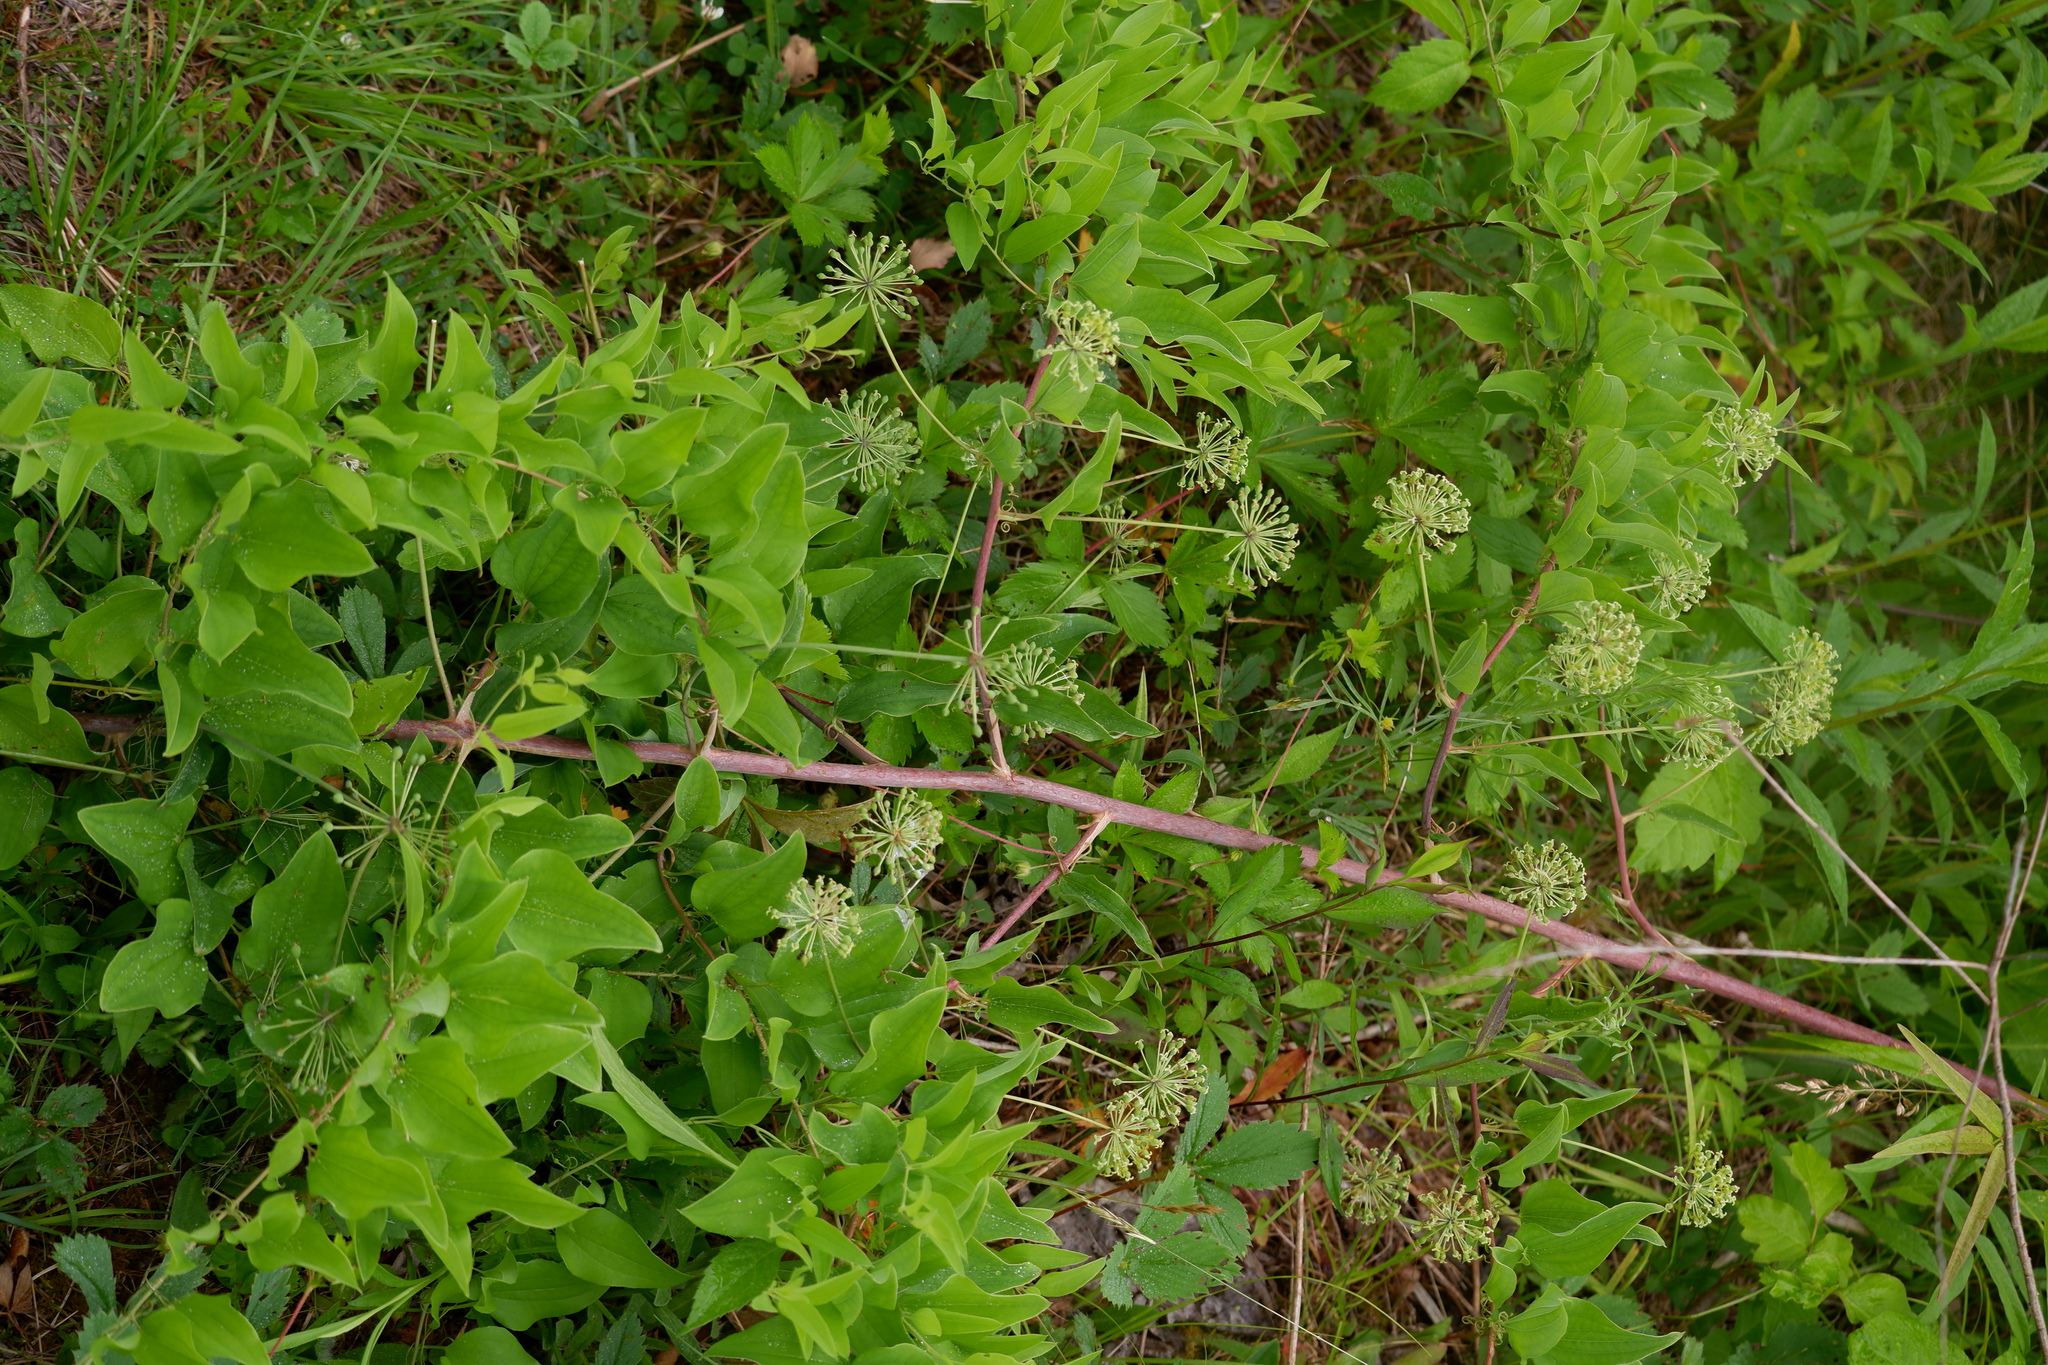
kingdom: Plantae
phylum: Tracheophyta
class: Liliopsida
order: Liliales
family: Smilacaceae
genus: Smilax
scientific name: Smilax herbacea
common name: Jacob's-ladder
